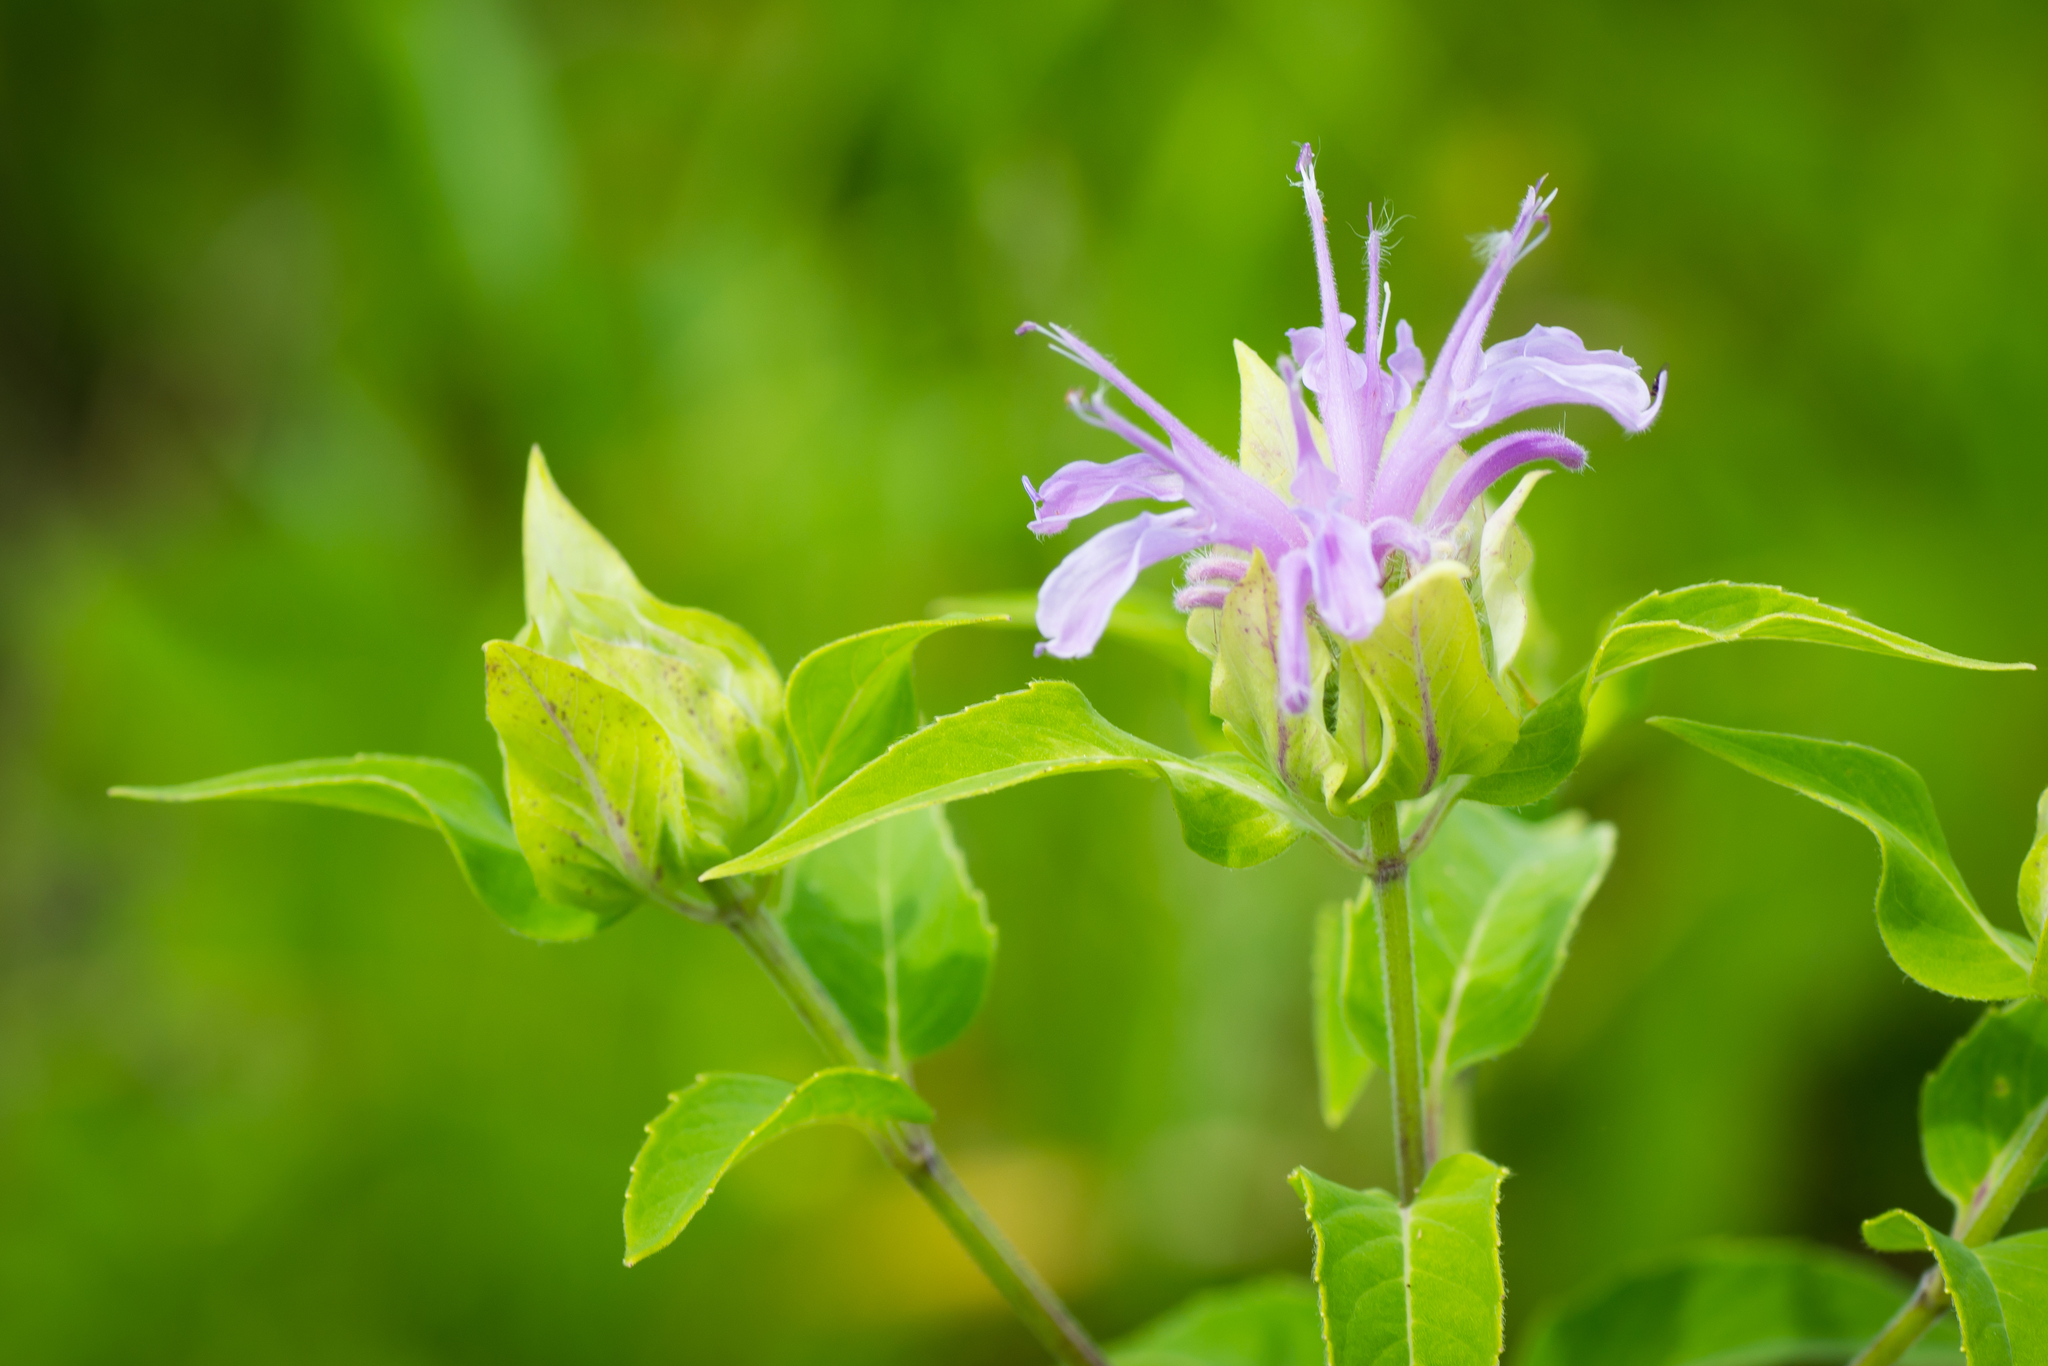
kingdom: Plantae
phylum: Tracheophyta
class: Magnoliopsida
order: Lamiales
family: Lamiaceae
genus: Monarda
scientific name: Monarda fistulosa
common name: Purple beebalm
